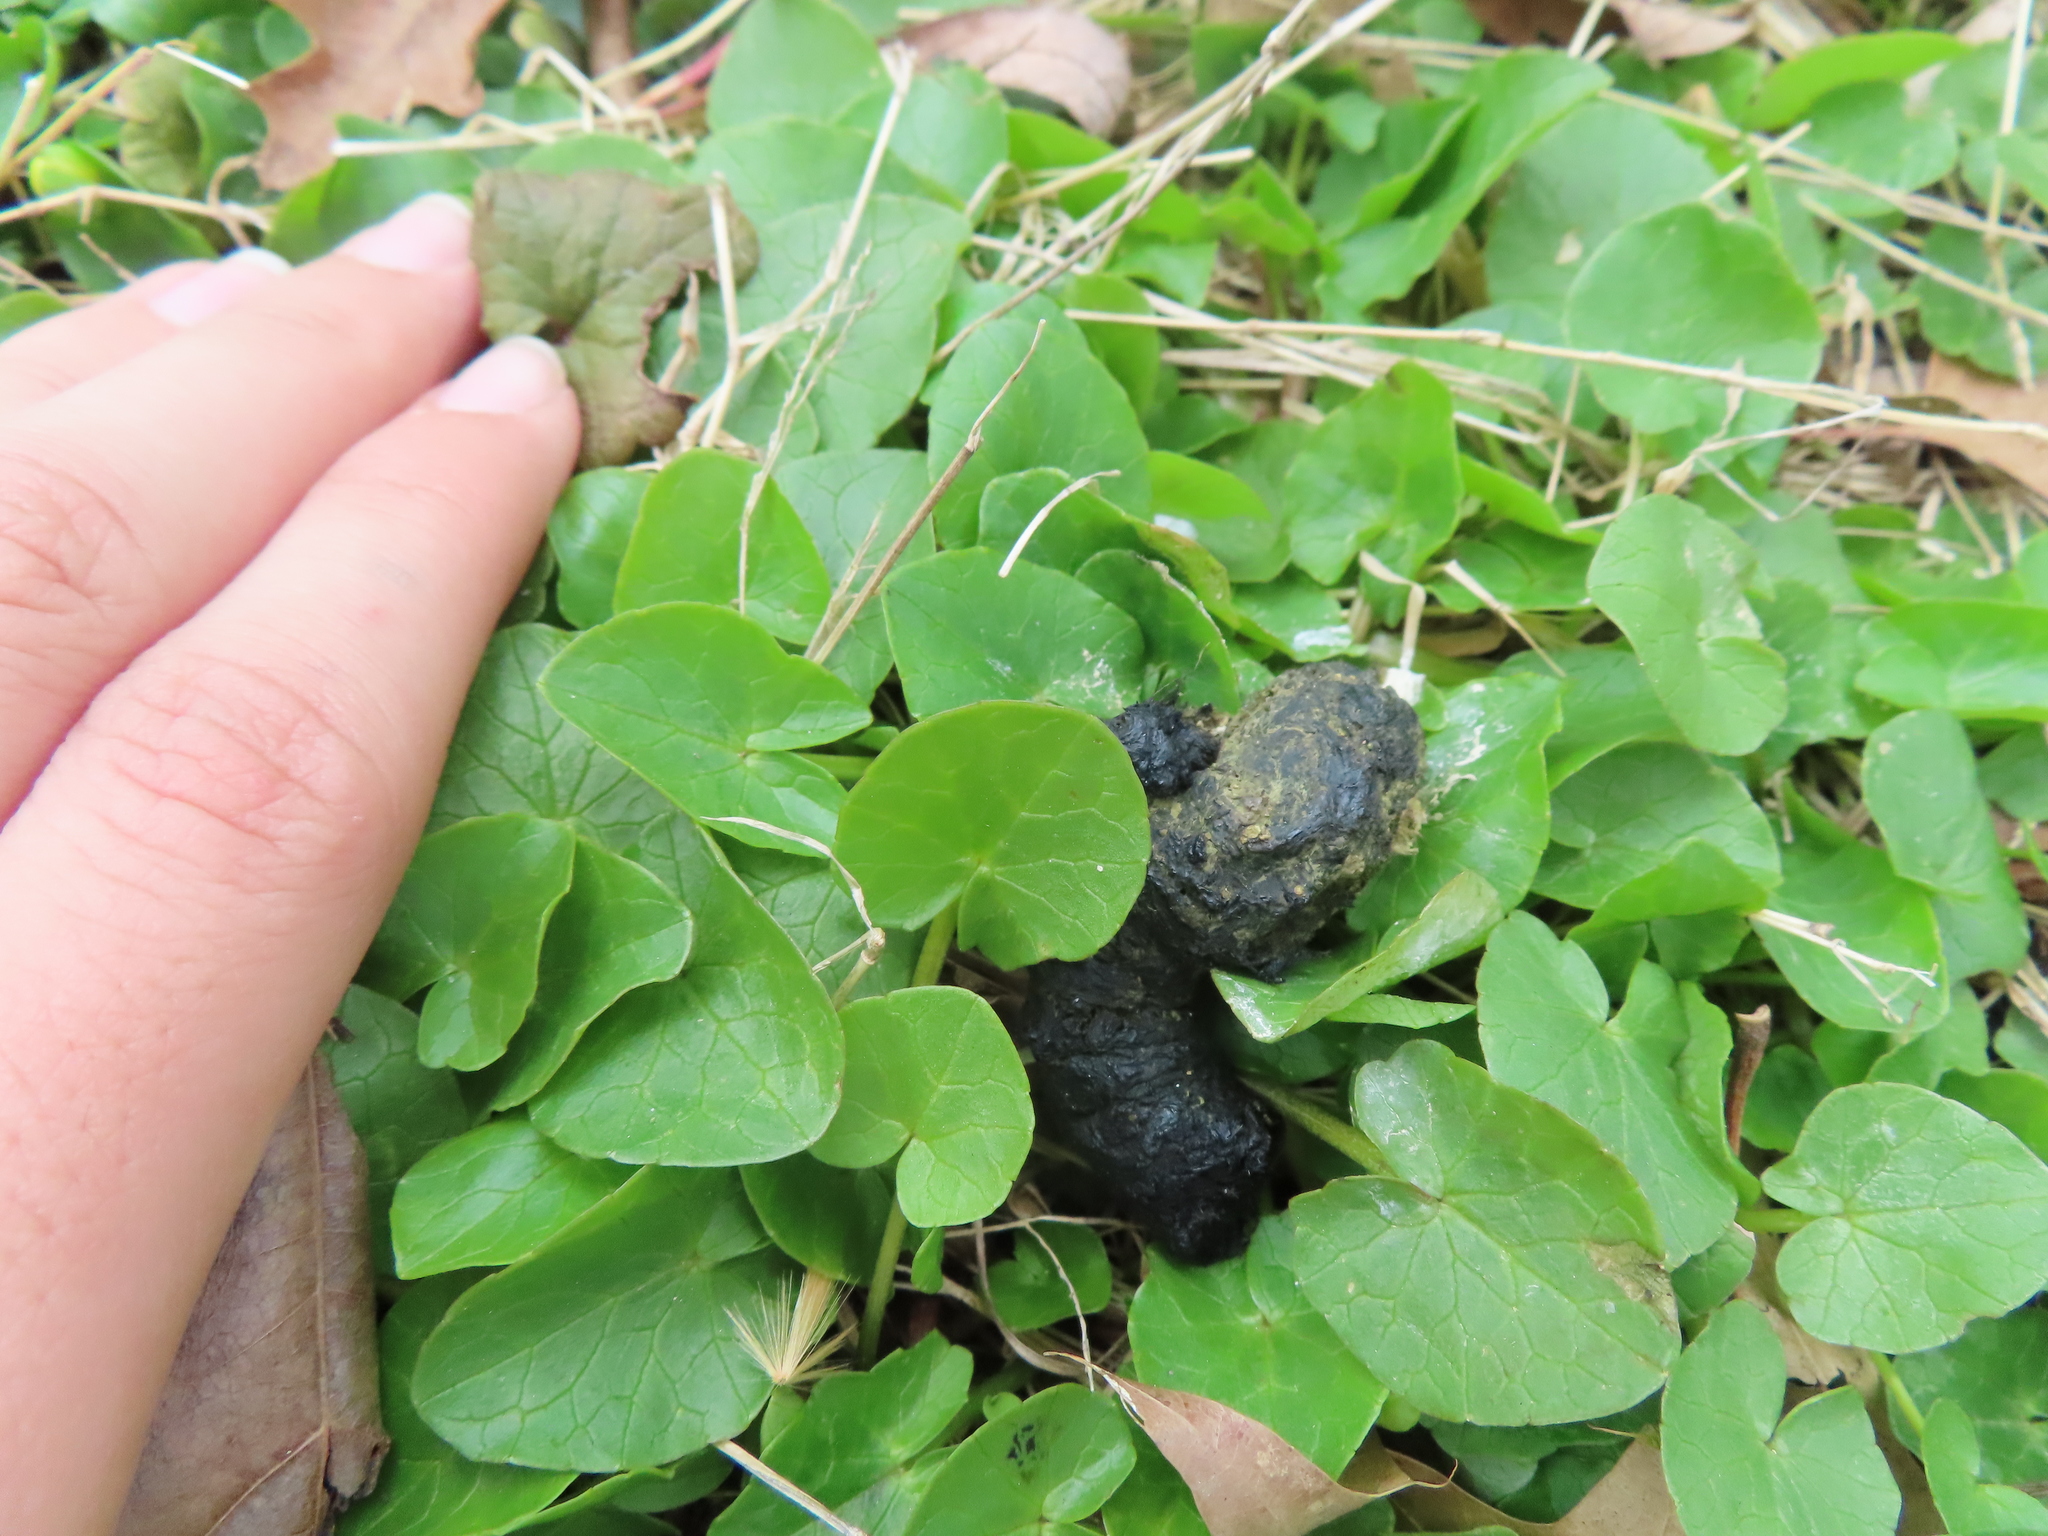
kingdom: Animalia
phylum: Chordata
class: Aves
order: Galliformes
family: Phasianidae
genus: Meleagris
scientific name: Meleagris gallopavo
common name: Wild turkey
